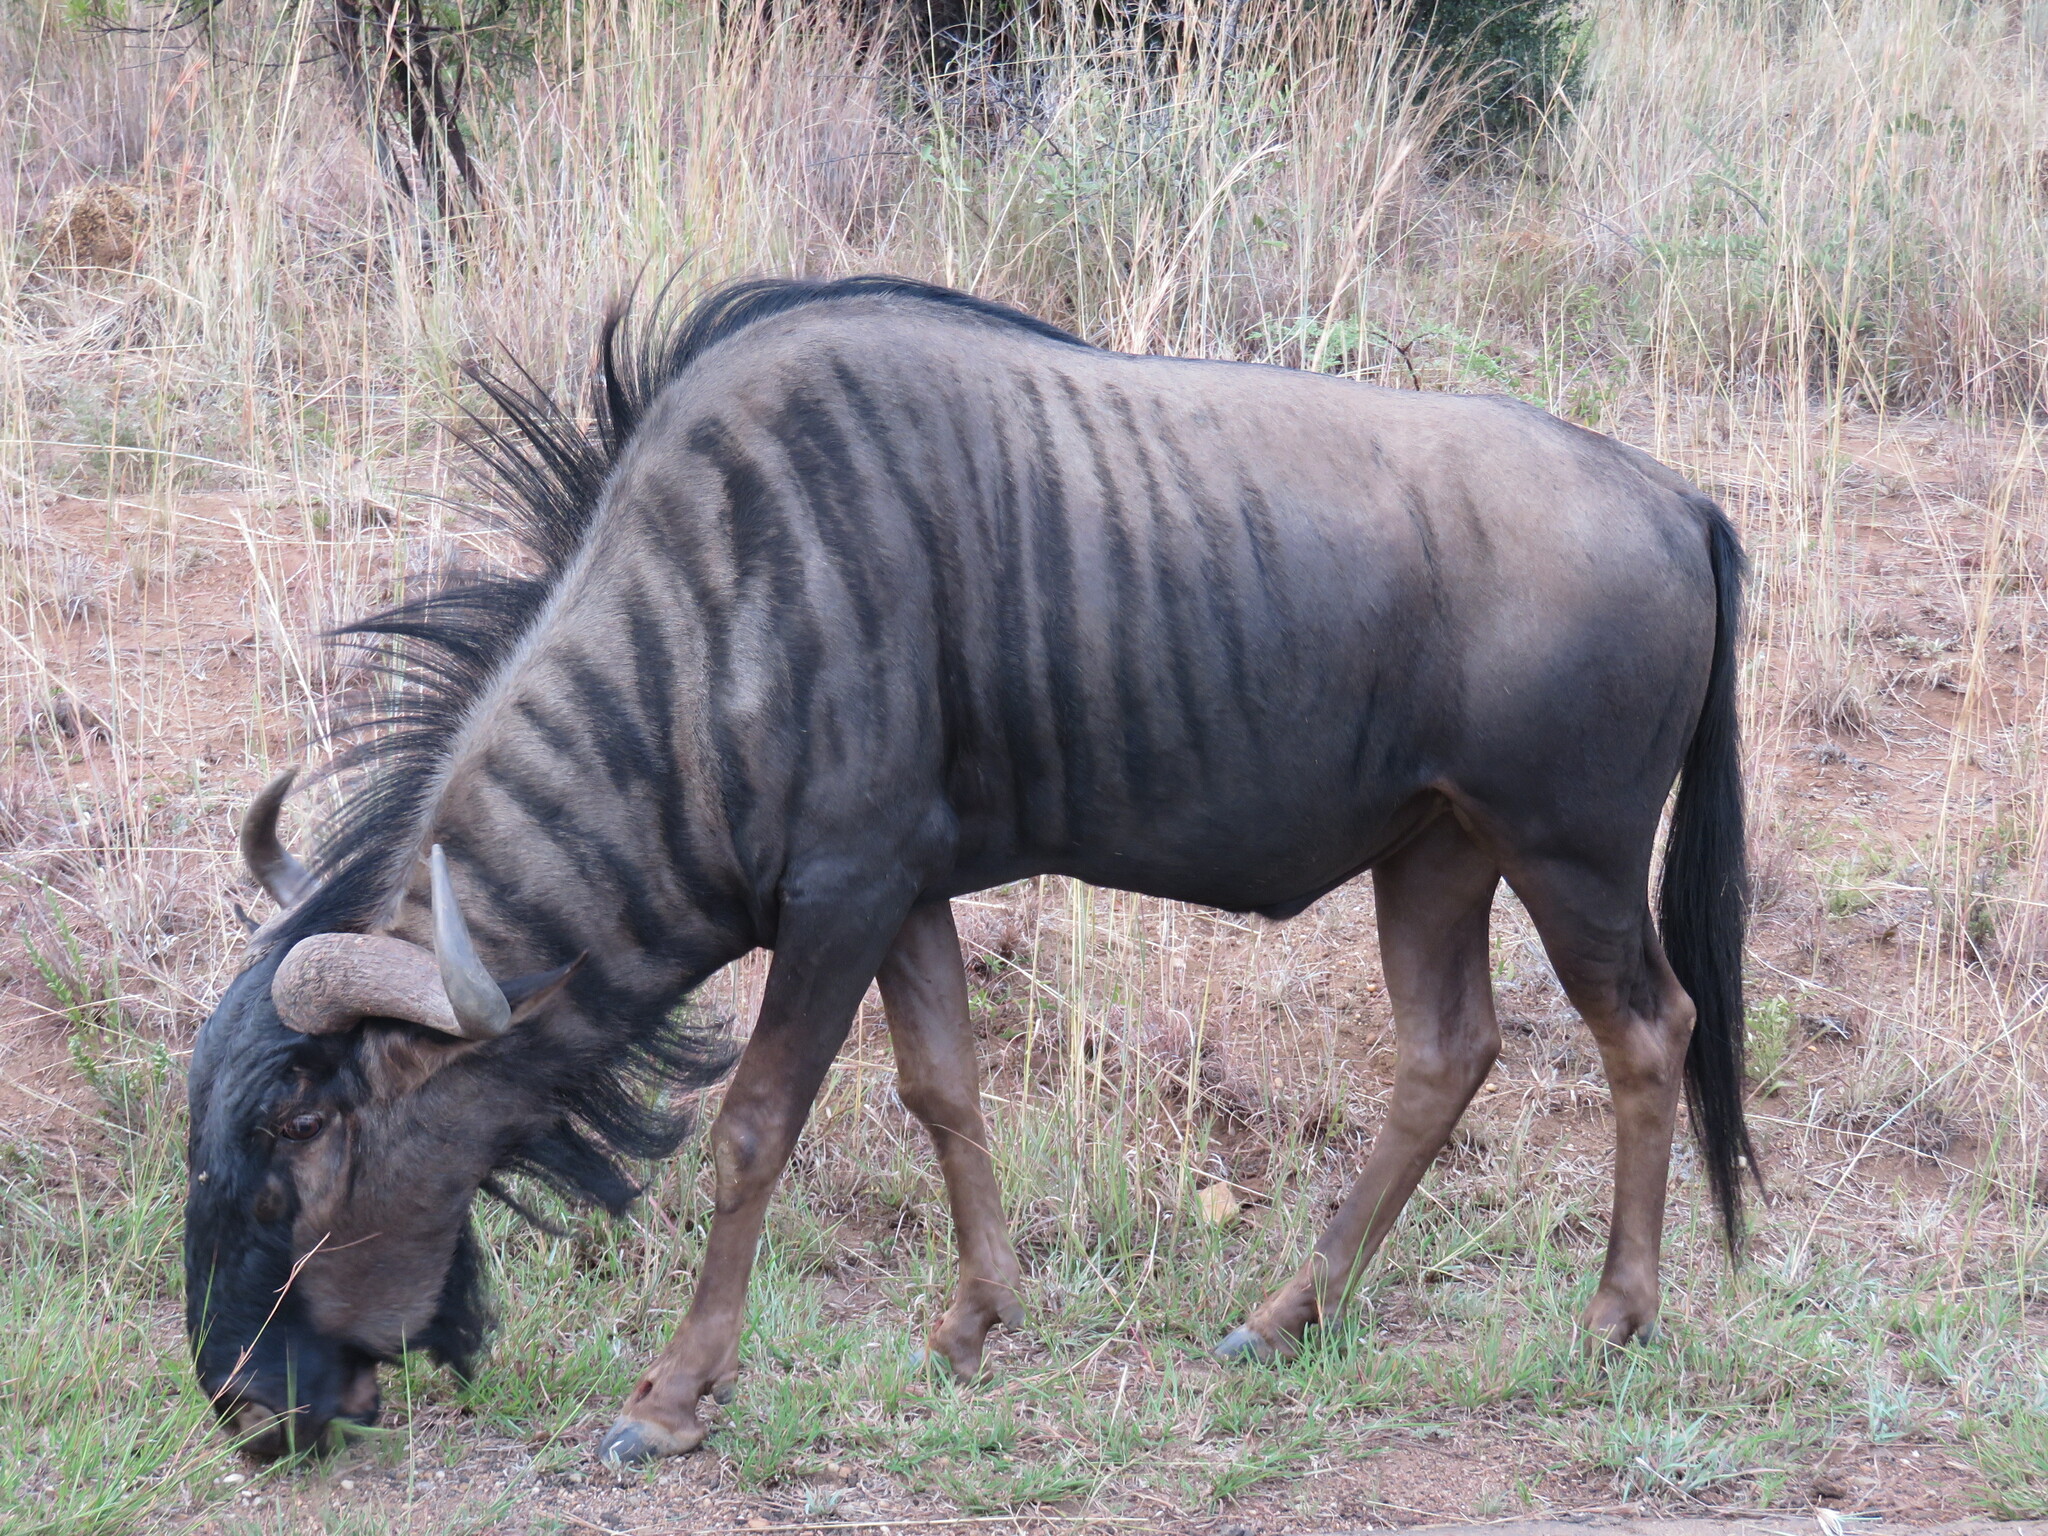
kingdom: Animalia
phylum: Chordata
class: Mammalia
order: Artiodactyla
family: Bovidae
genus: Connochaetes
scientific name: Connochaetes taurinus
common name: Blue wildebeest
